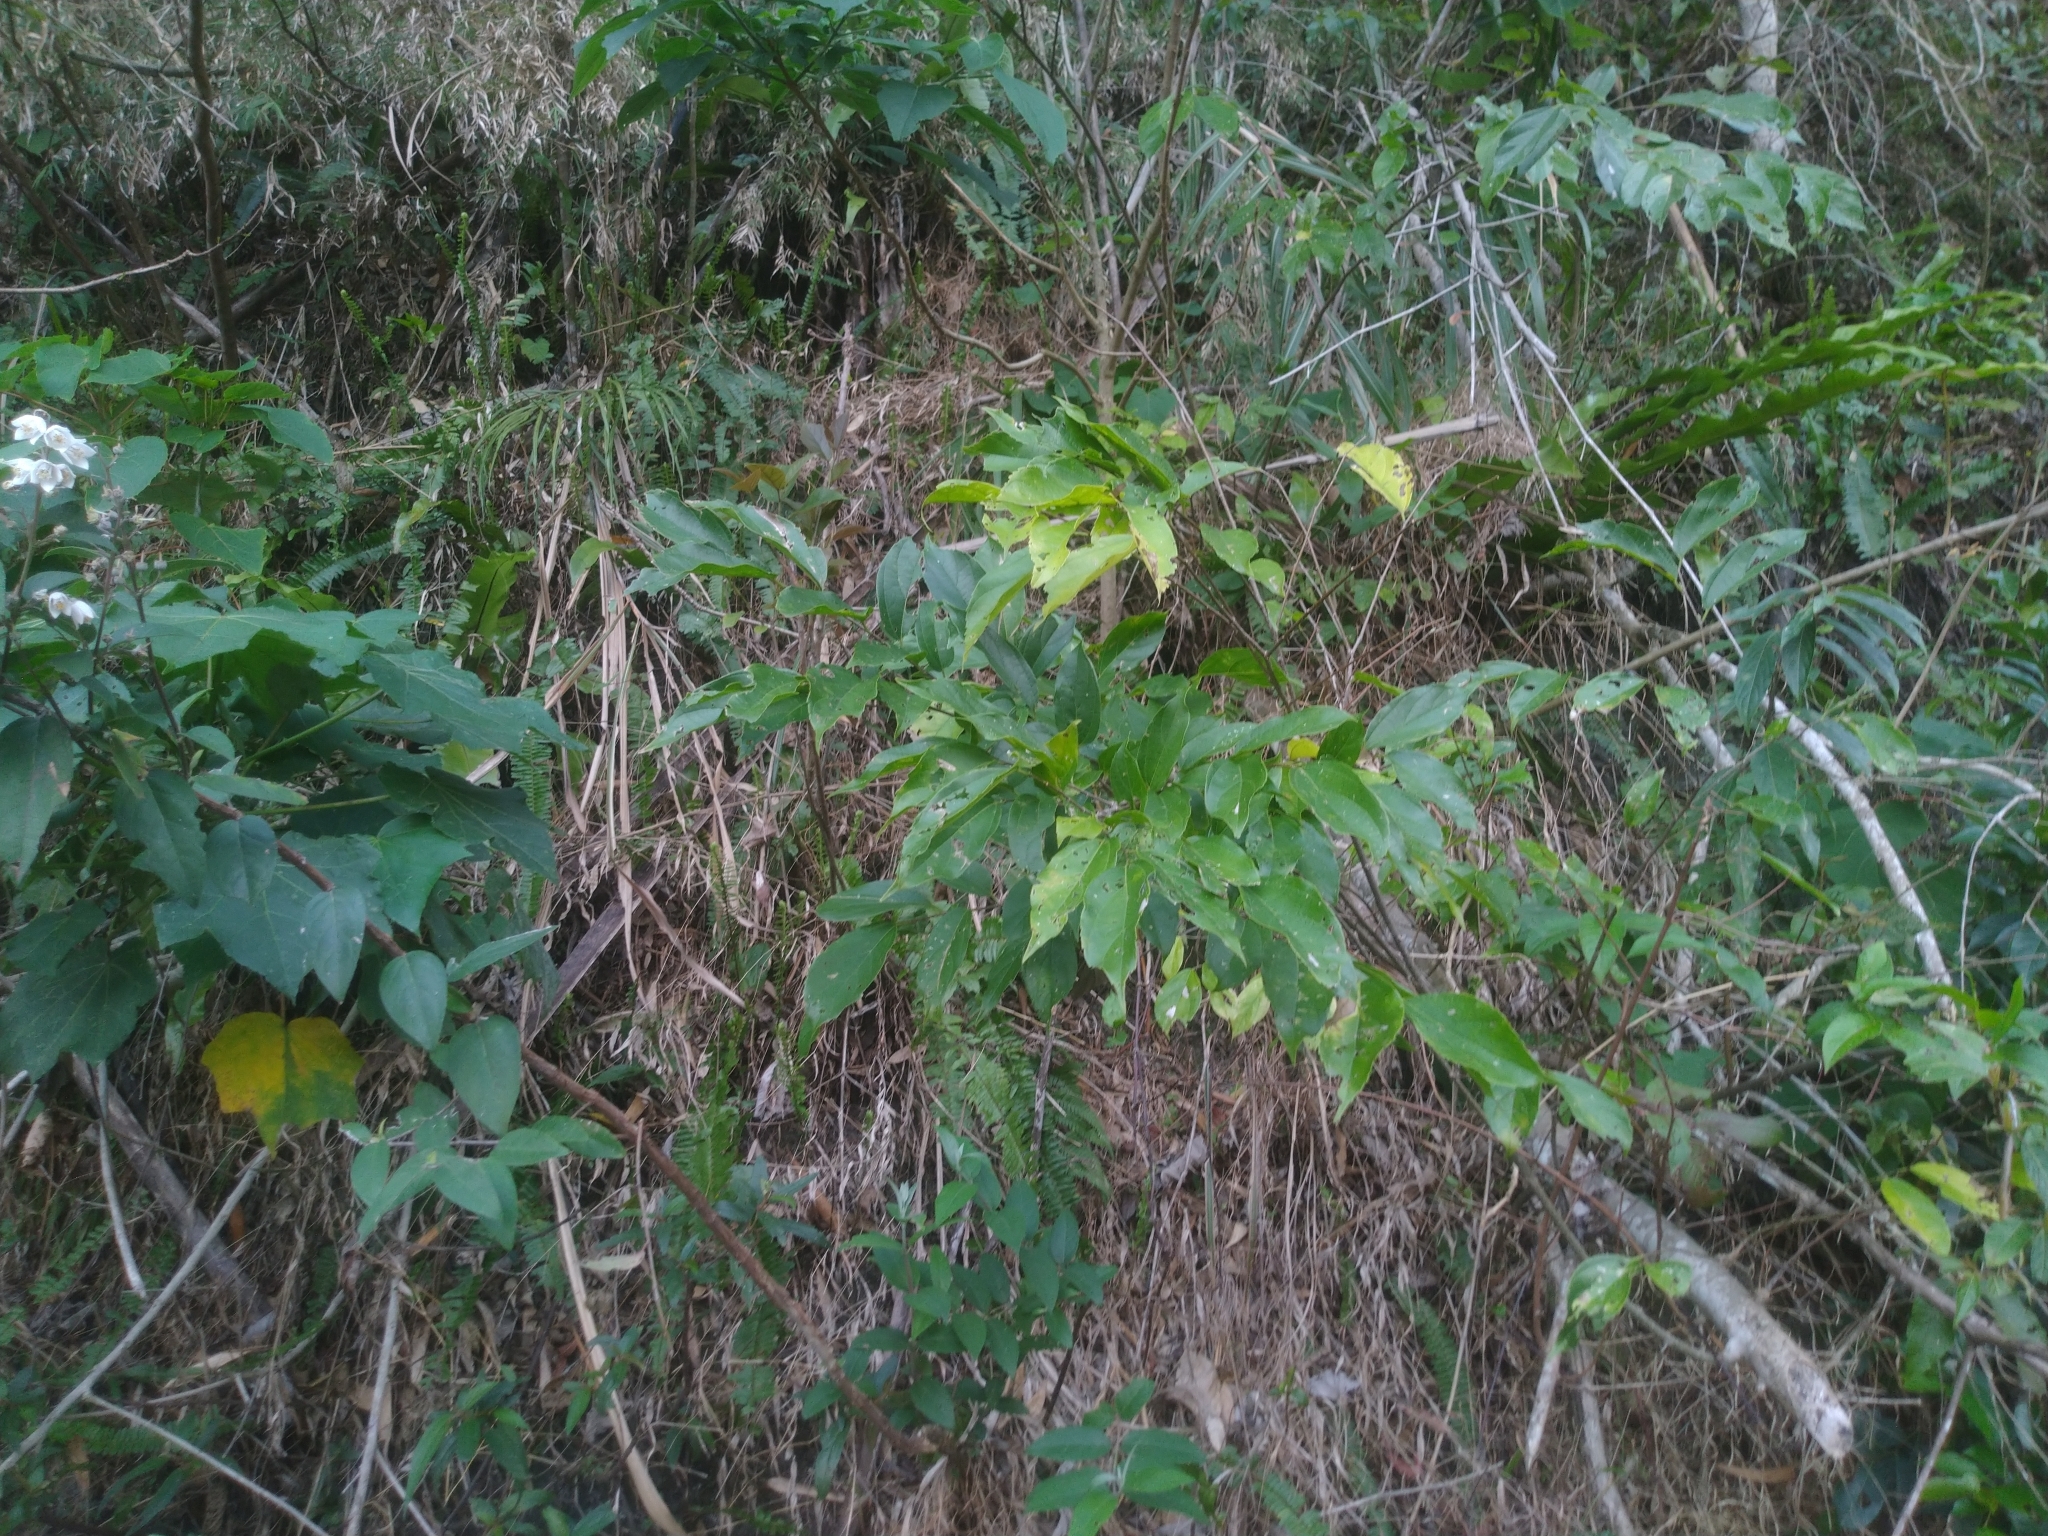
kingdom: Plantae
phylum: Tracheophyta
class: Magnoliopsida
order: Rosales
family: Cannabaceae
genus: Celtis
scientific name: Celtis tetrandra
